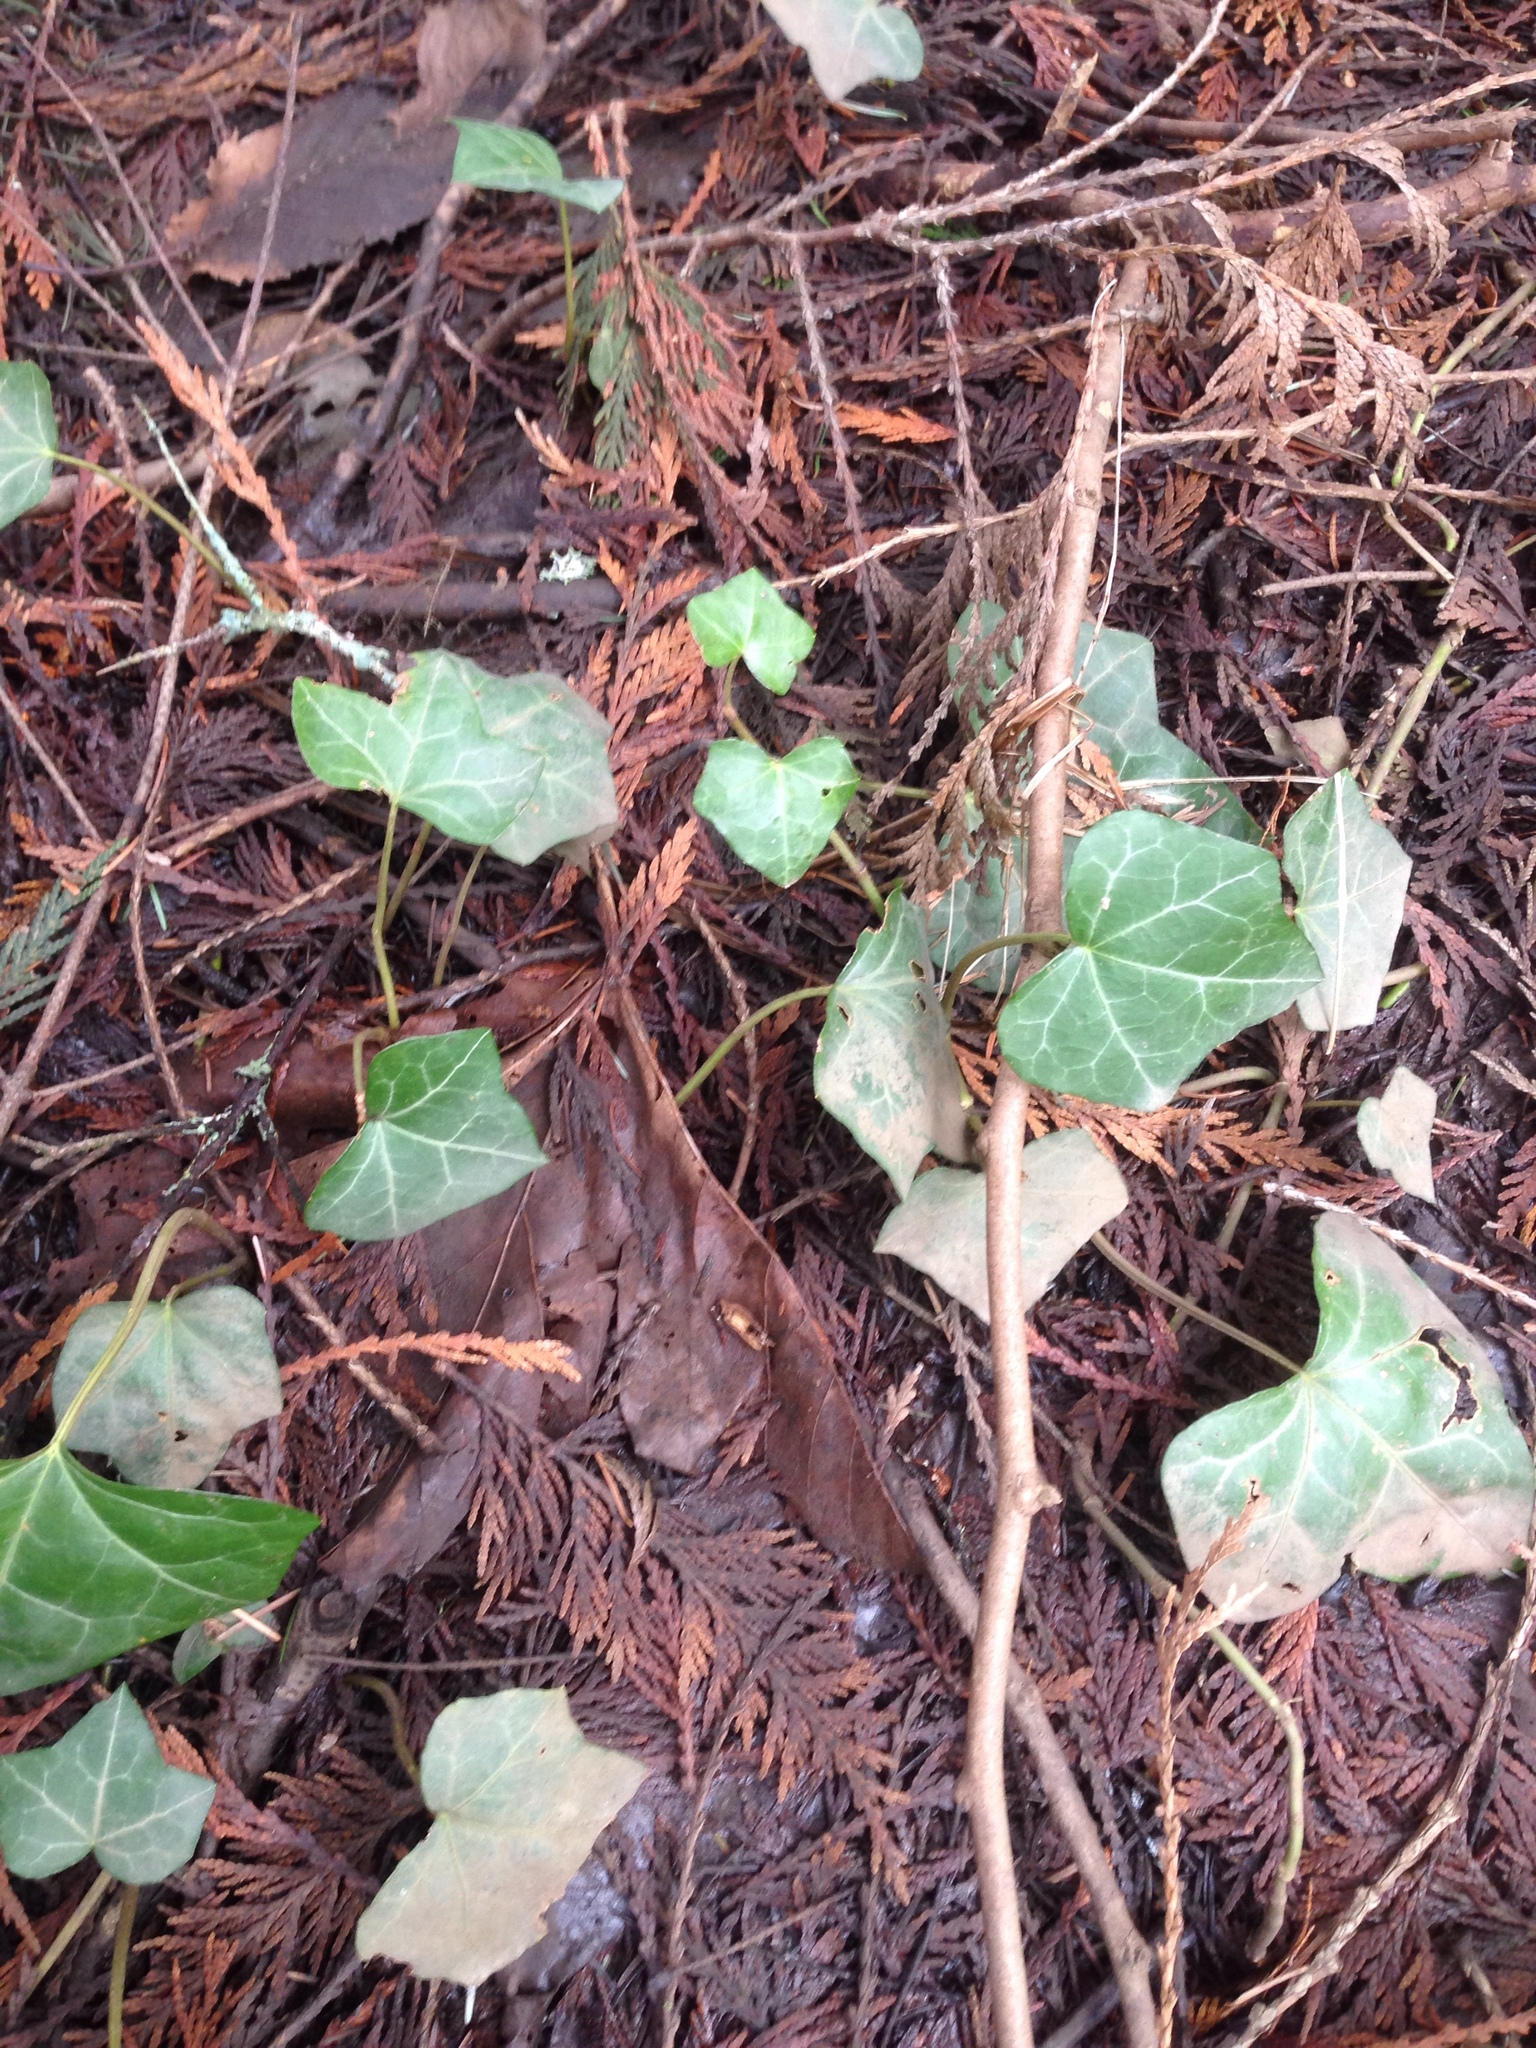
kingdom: Plantae
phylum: Tracheophyta
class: Magnoliopsida
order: Apiales
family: Araliaceae
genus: Hedera
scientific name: Hedera helix
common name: Ivy
